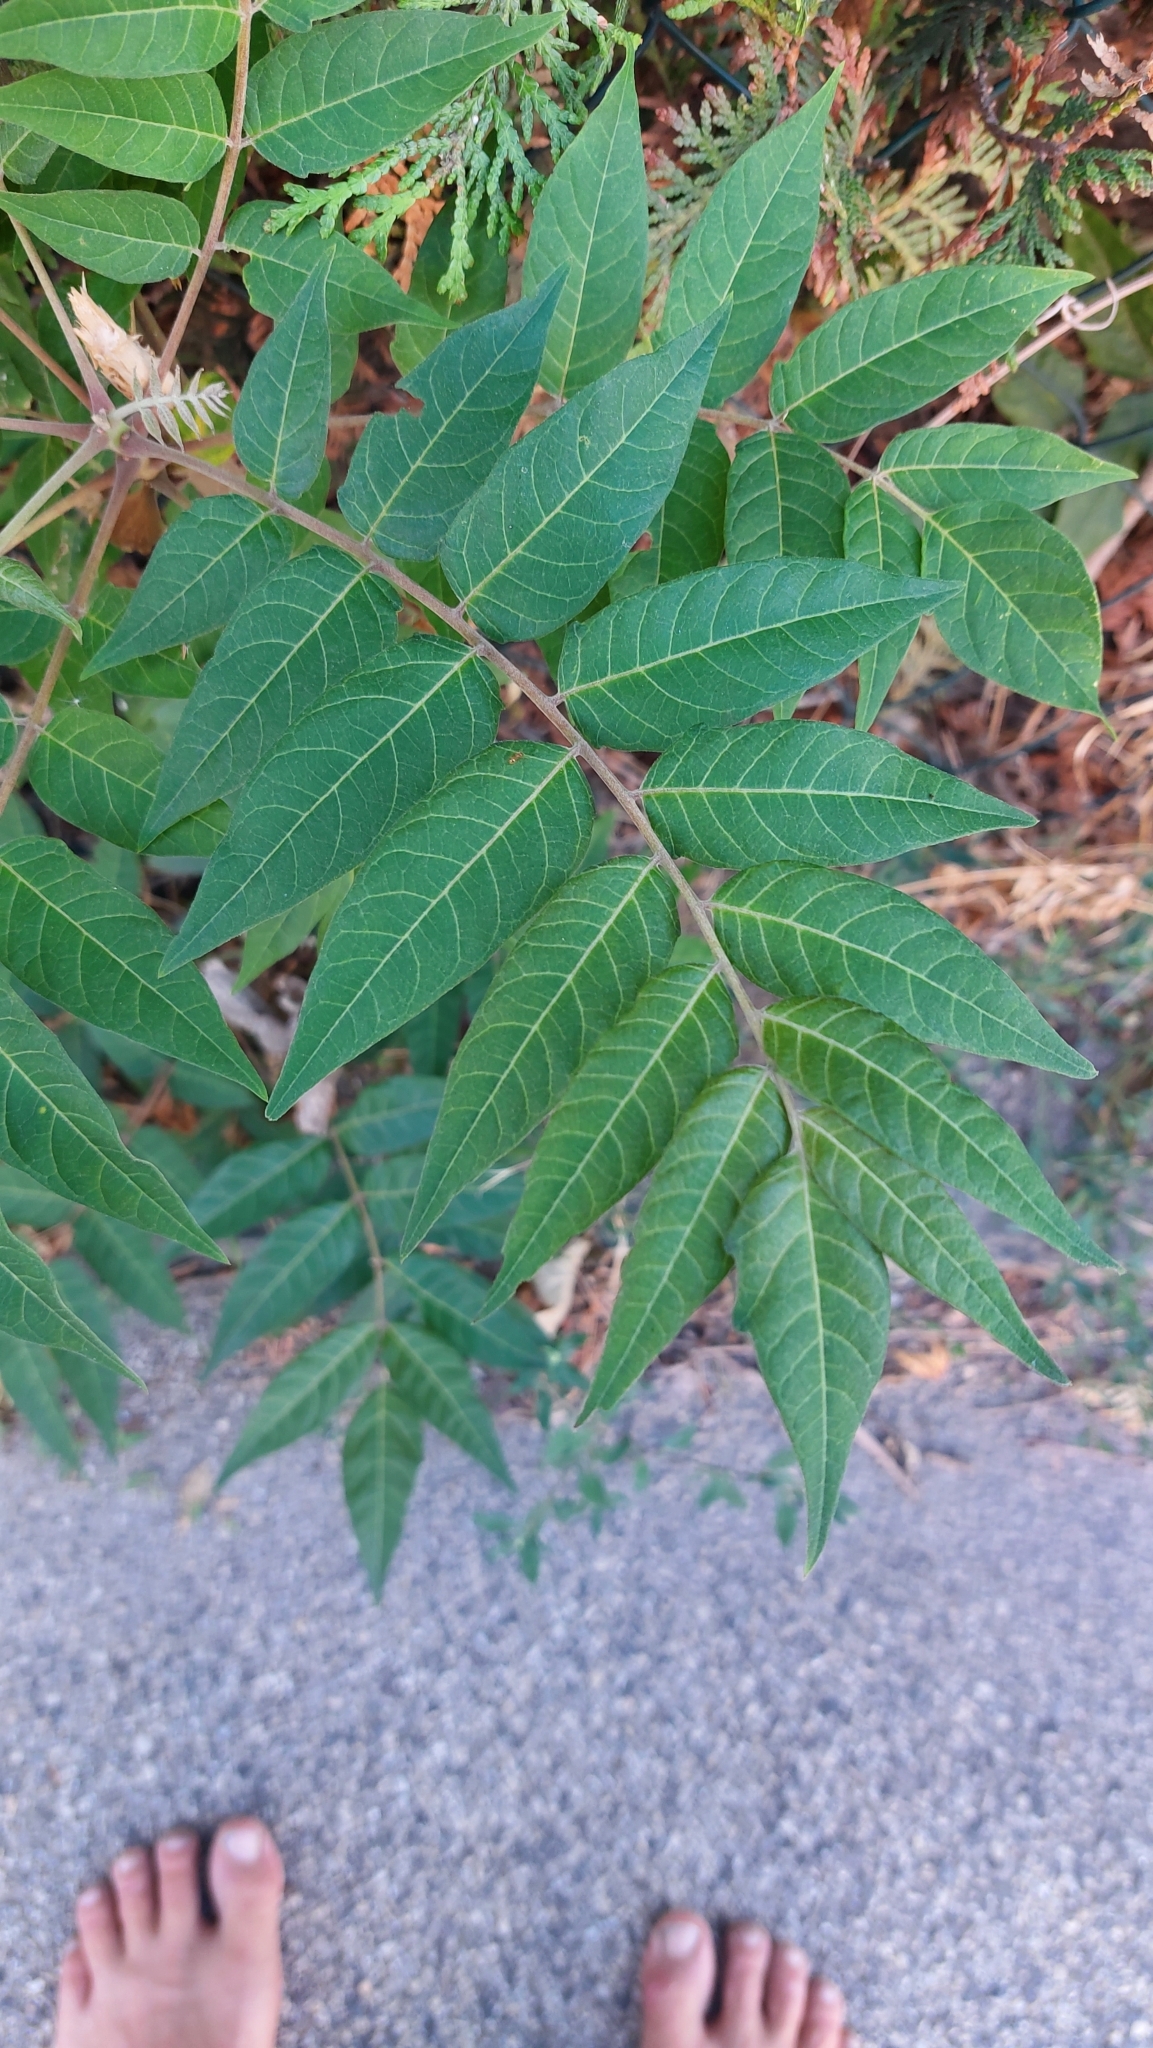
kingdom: Plantae
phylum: Tracheophyta
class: Magnoliopsida
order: Sapindales
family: Simaroubaceae
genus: Ailanthus
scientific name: Ailanthus altissima
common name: Tree-of-heaven
